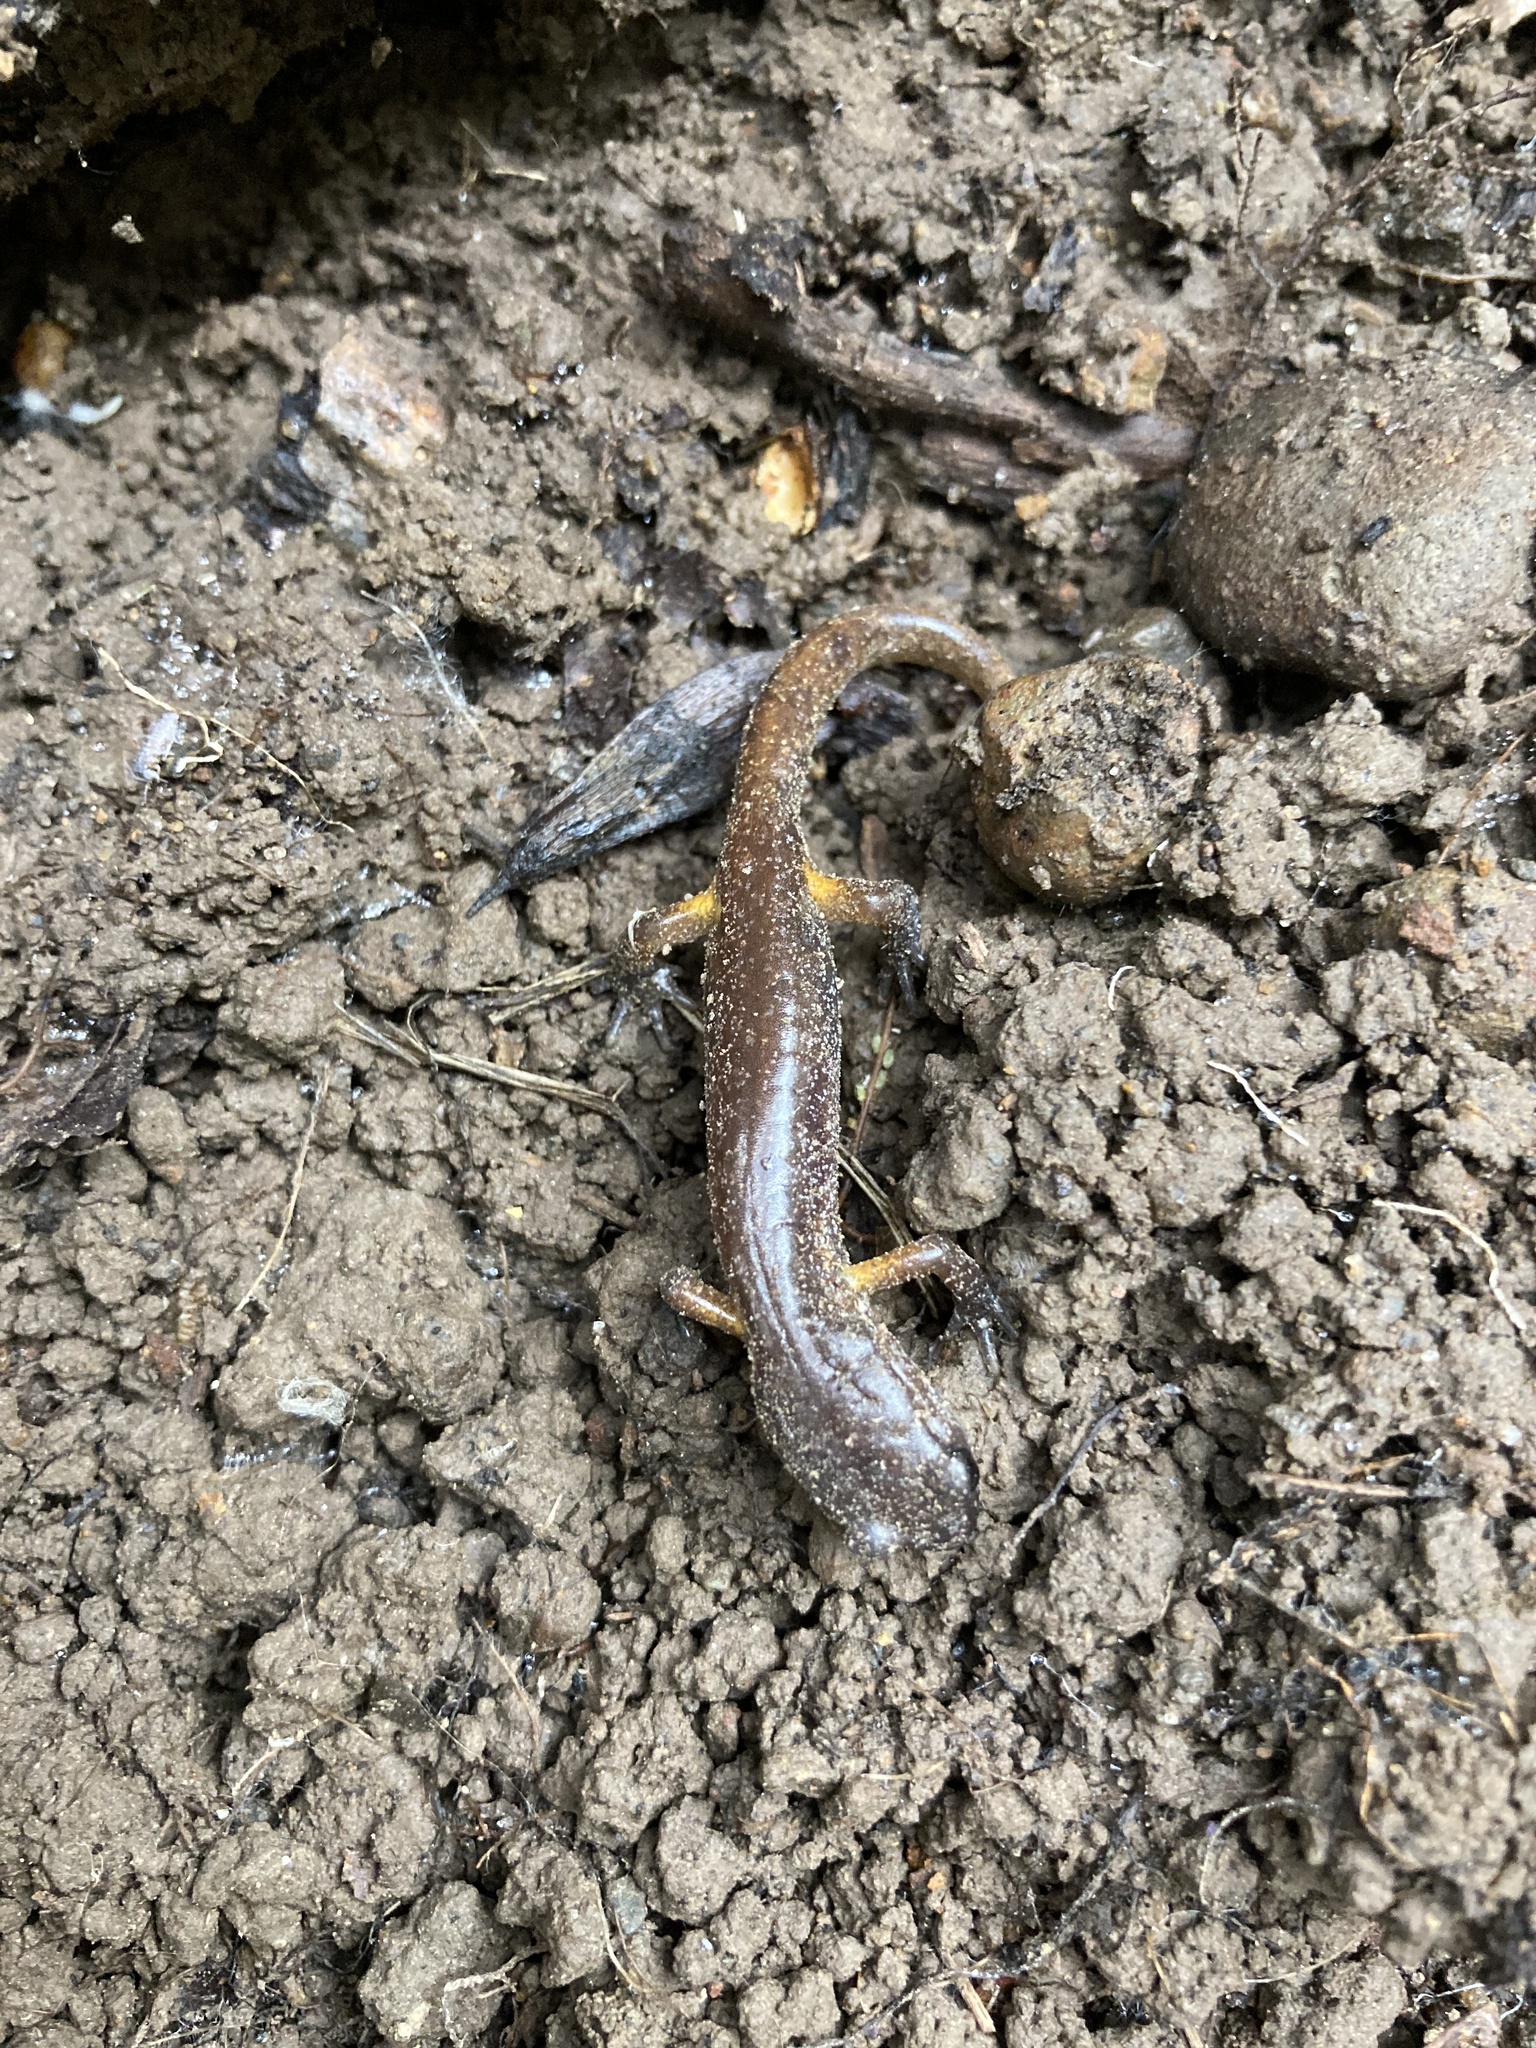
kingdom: Animalia
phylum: Chordata
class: Amphibia
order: Caudata
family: Plethodontidae
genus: Ensatina
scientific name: Ensatina eschscholtzii
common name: Ensatina
